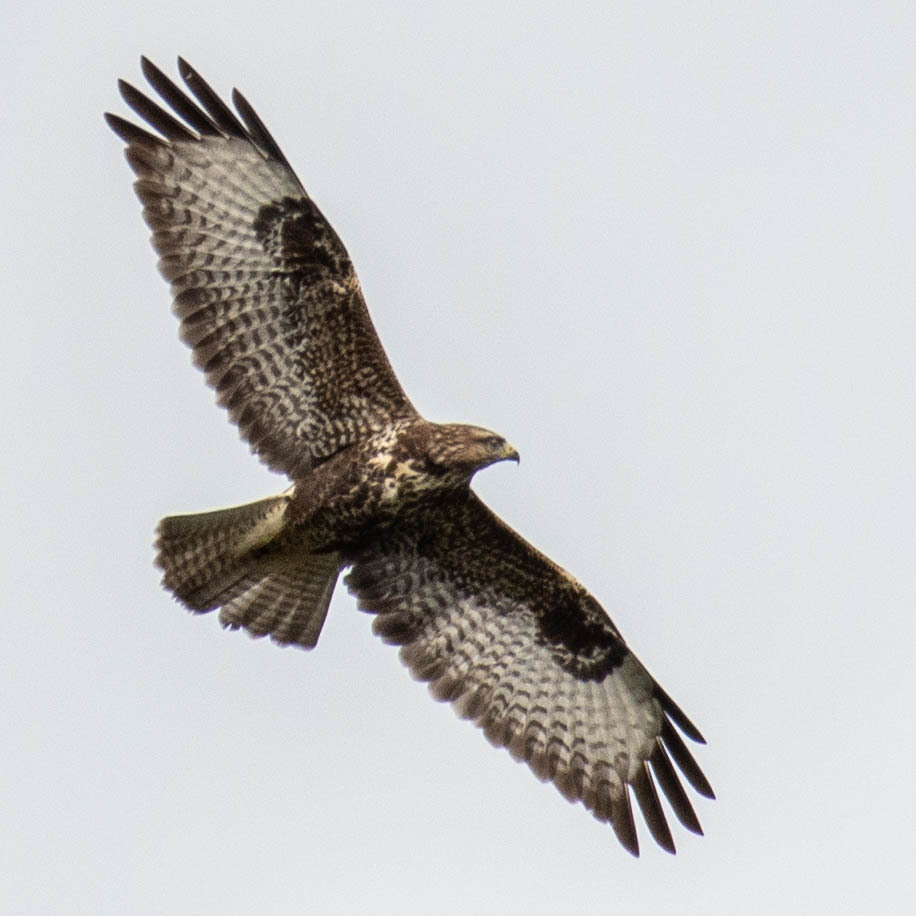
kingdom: Animalia
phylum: Chordata
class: Aves
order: Accipitriformes
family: Accipitridae
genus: Buteo
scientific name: Buteo buteo
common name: Common buzzard
